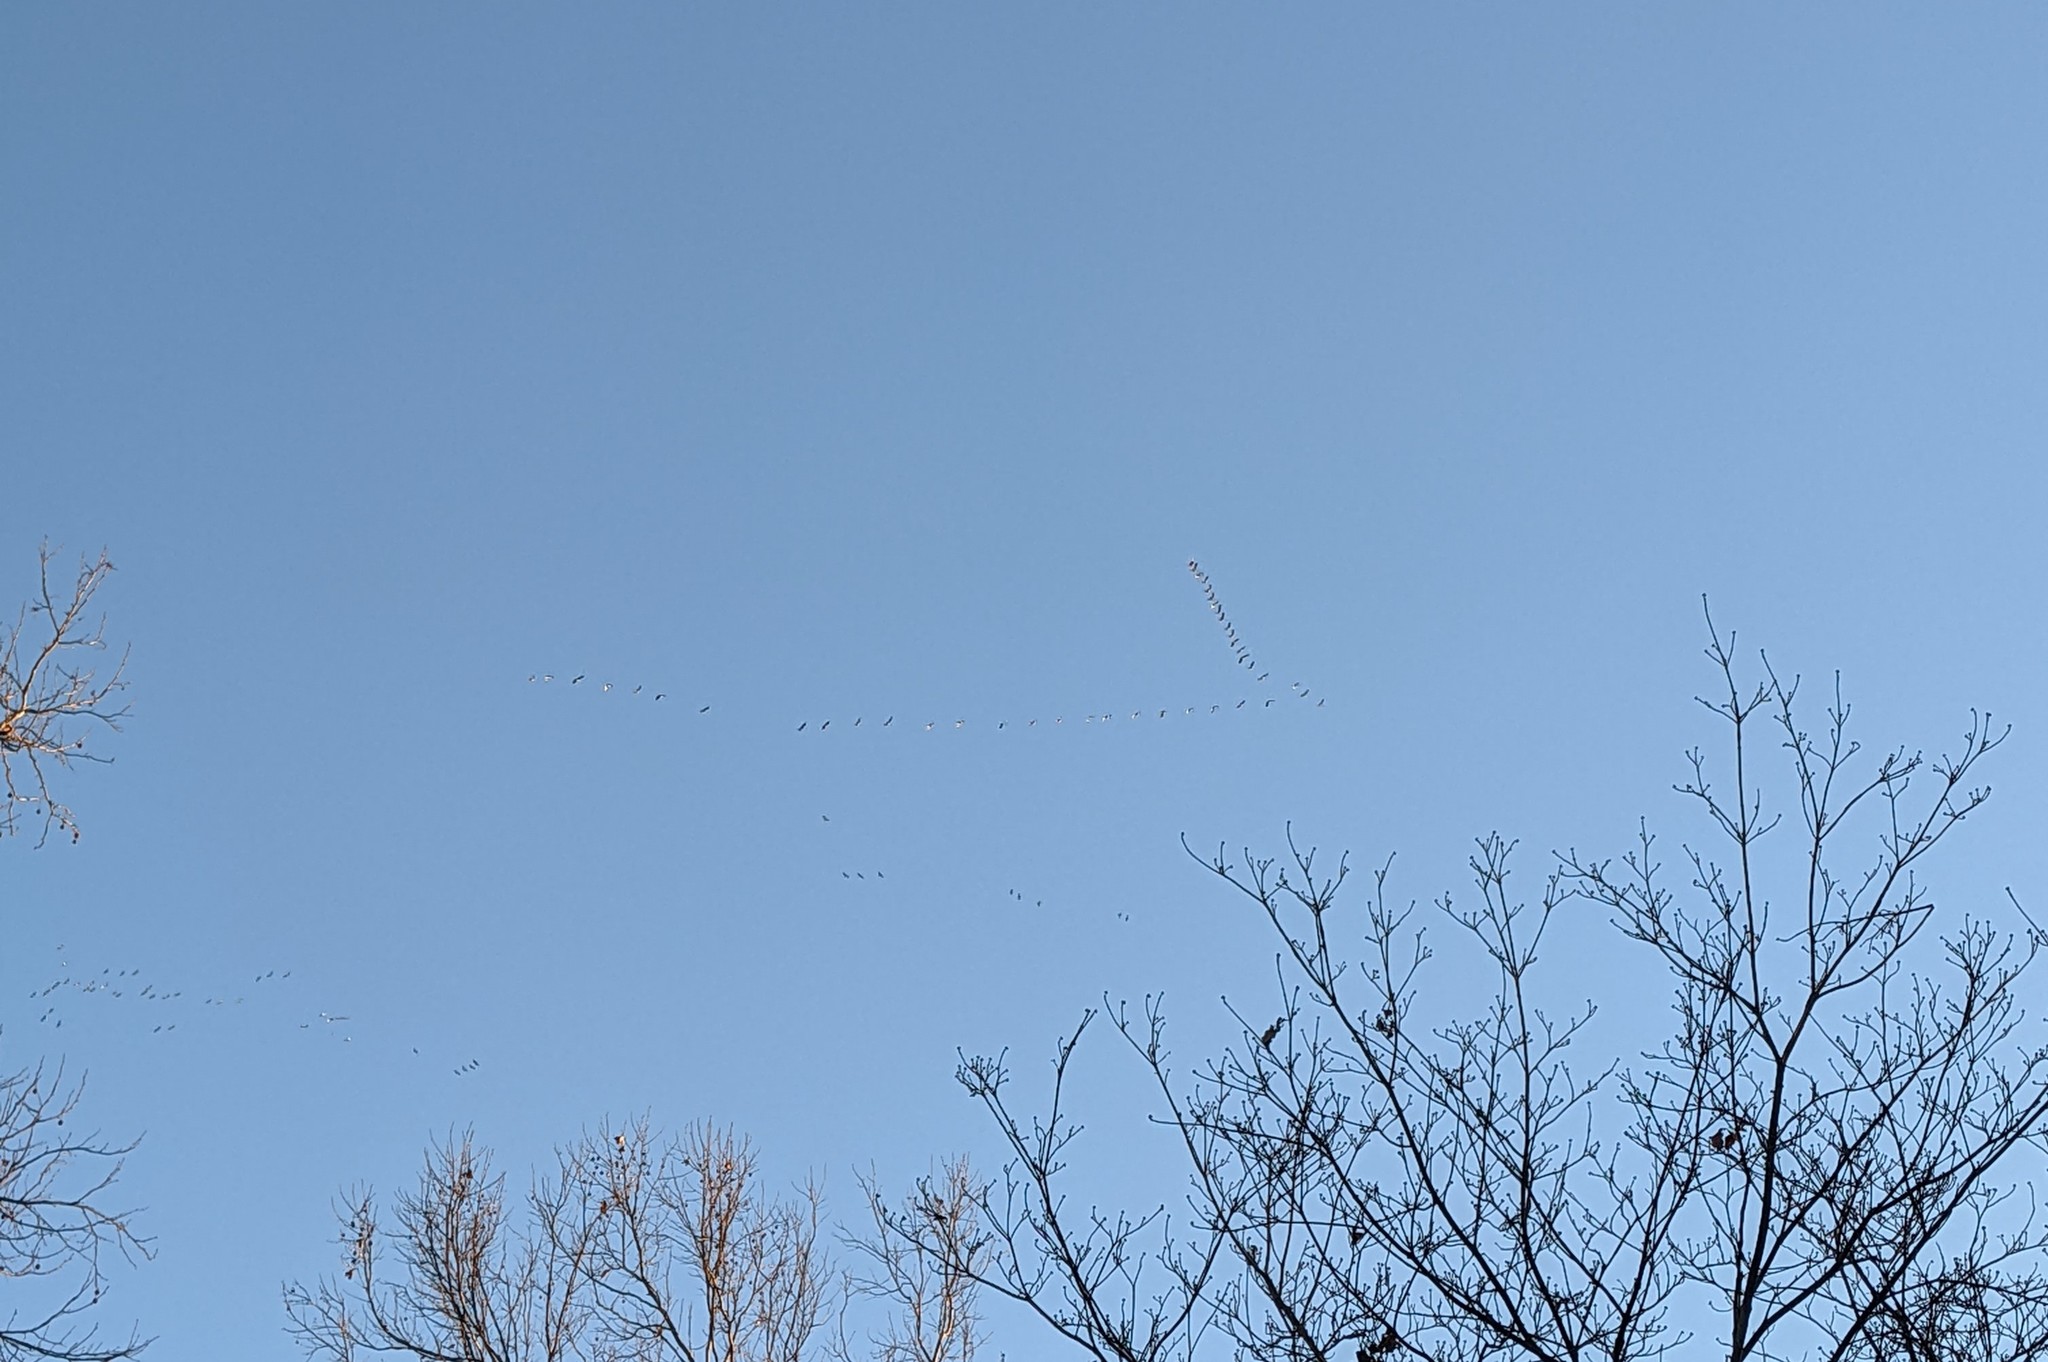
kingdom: Animalia
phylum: Chordata
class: Aves
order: Gruiformes
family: Gruidae
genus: Grus
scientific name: Grus canadensis
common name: Sandhill crane
